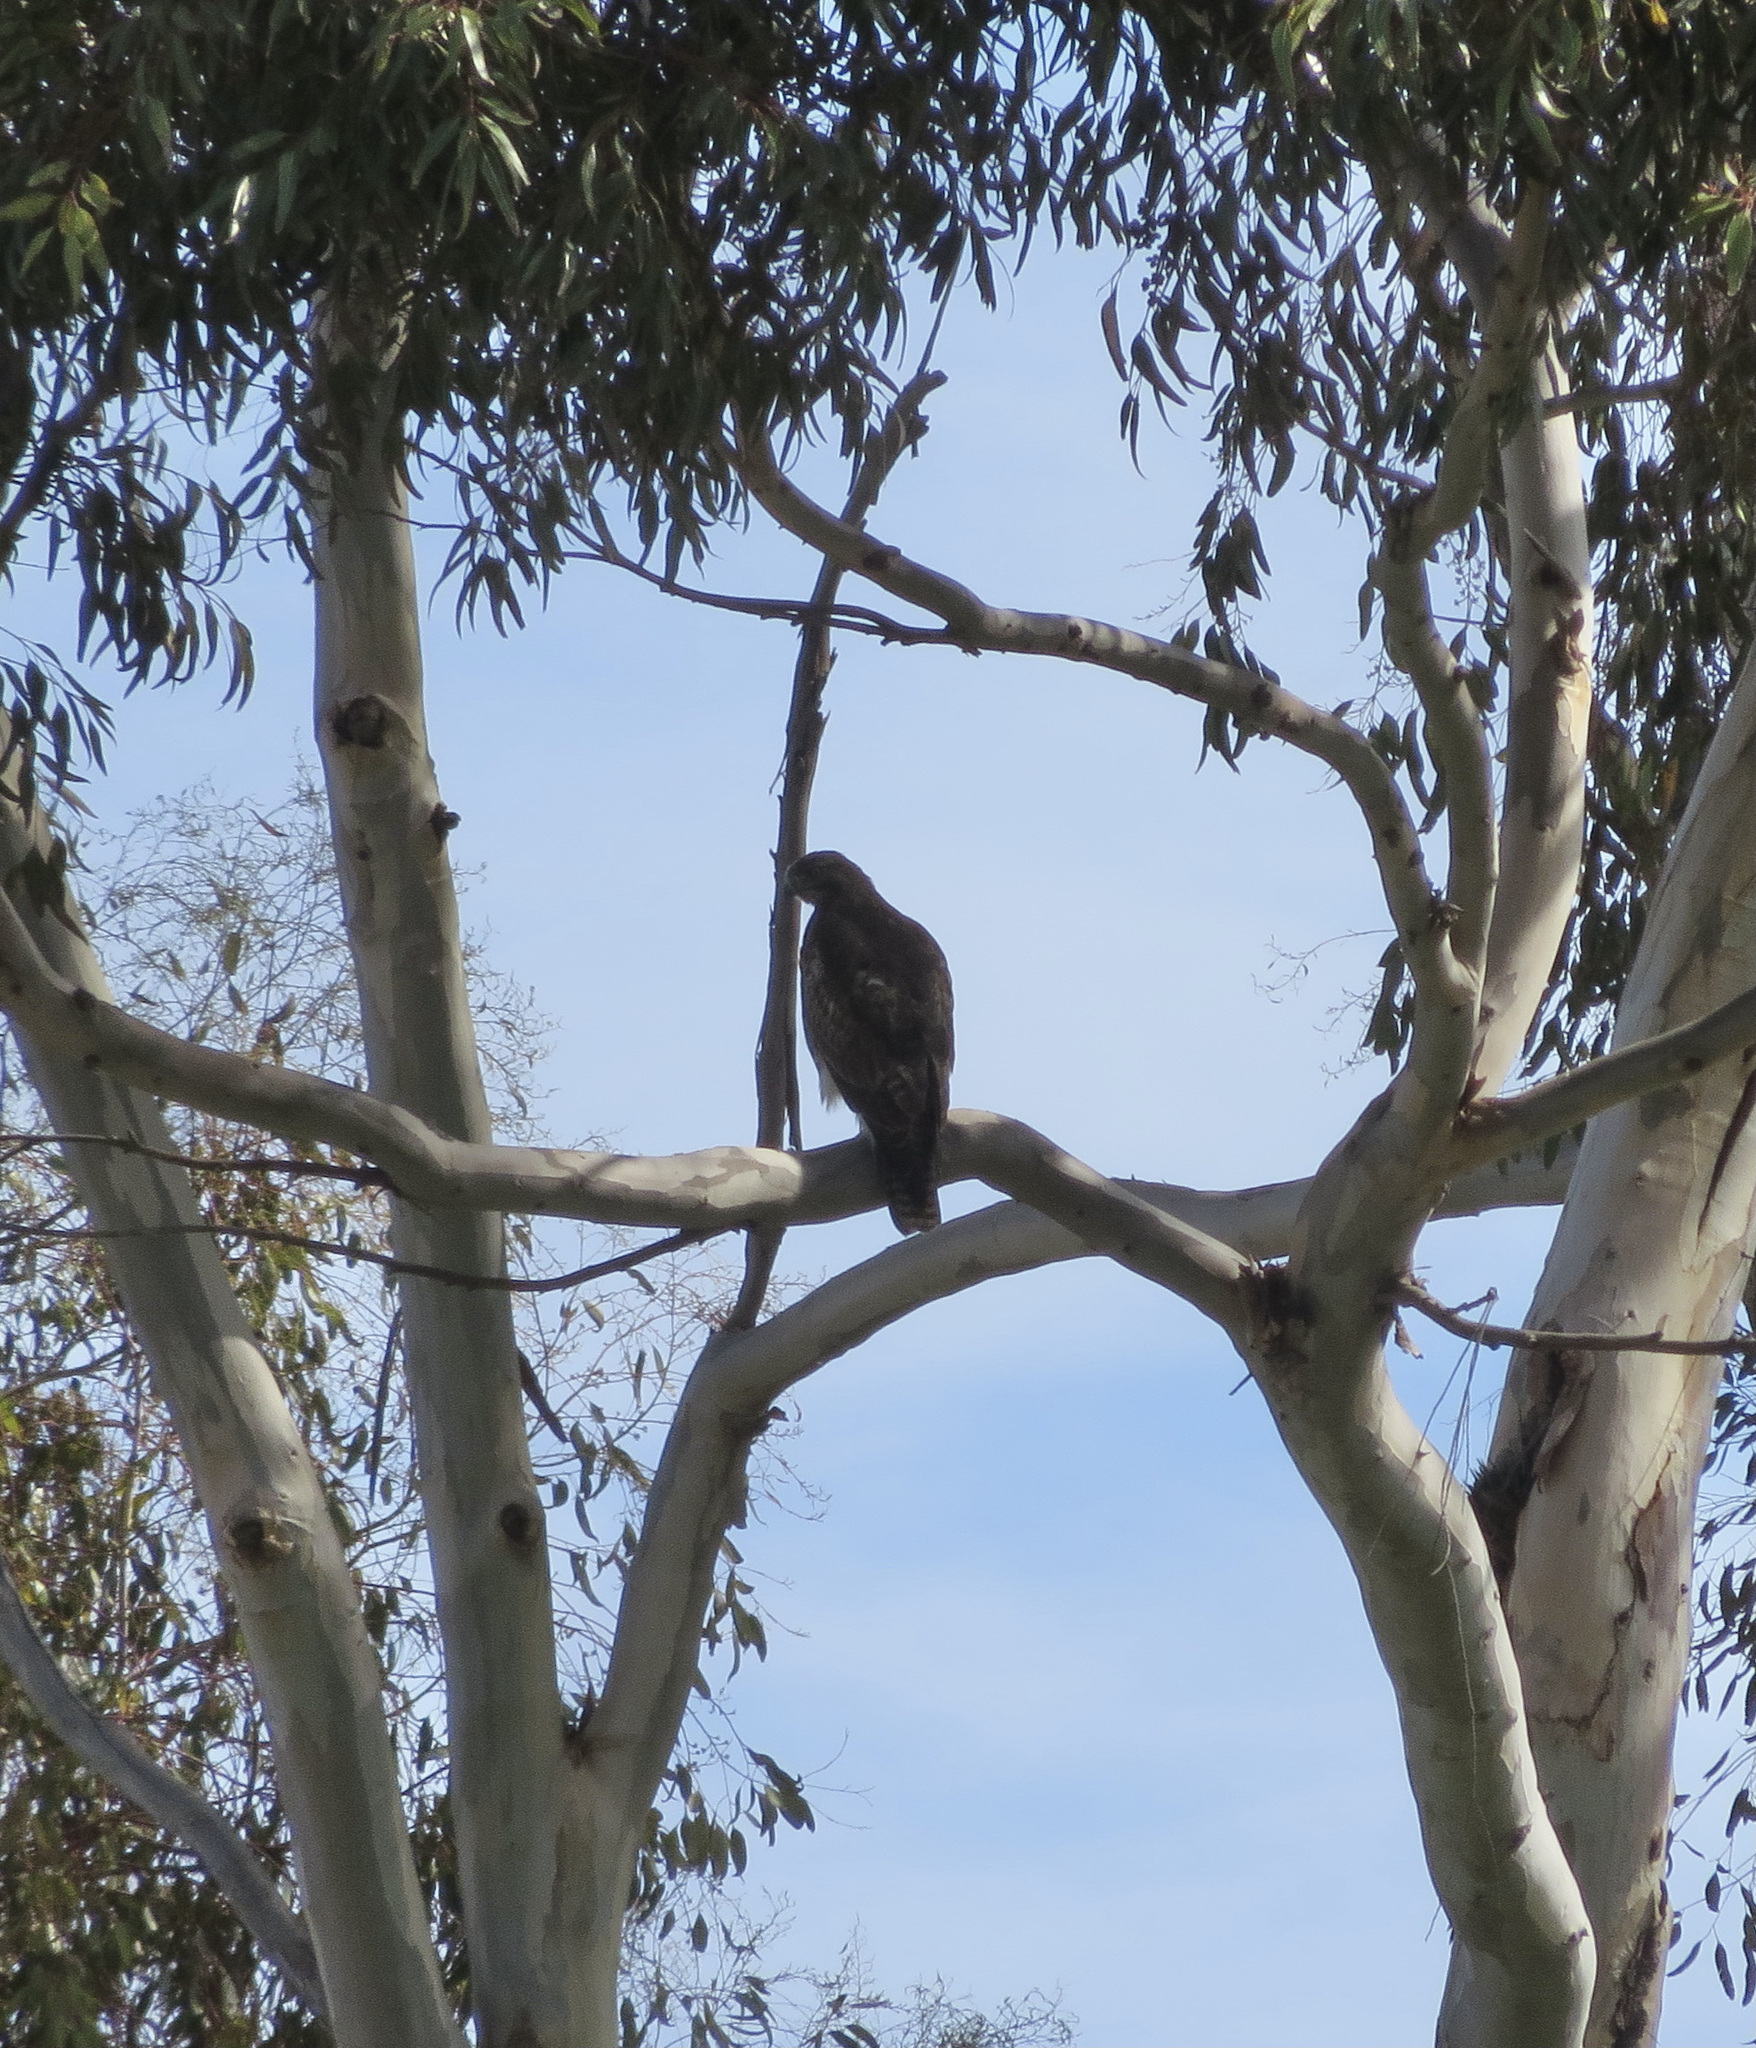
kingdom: Animalia
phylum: Chordata
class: Aves
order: Accipitriformes
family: Accipitridae
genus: Buteo
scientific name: Buteo jamaicensis
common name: Red-tailed hawk
